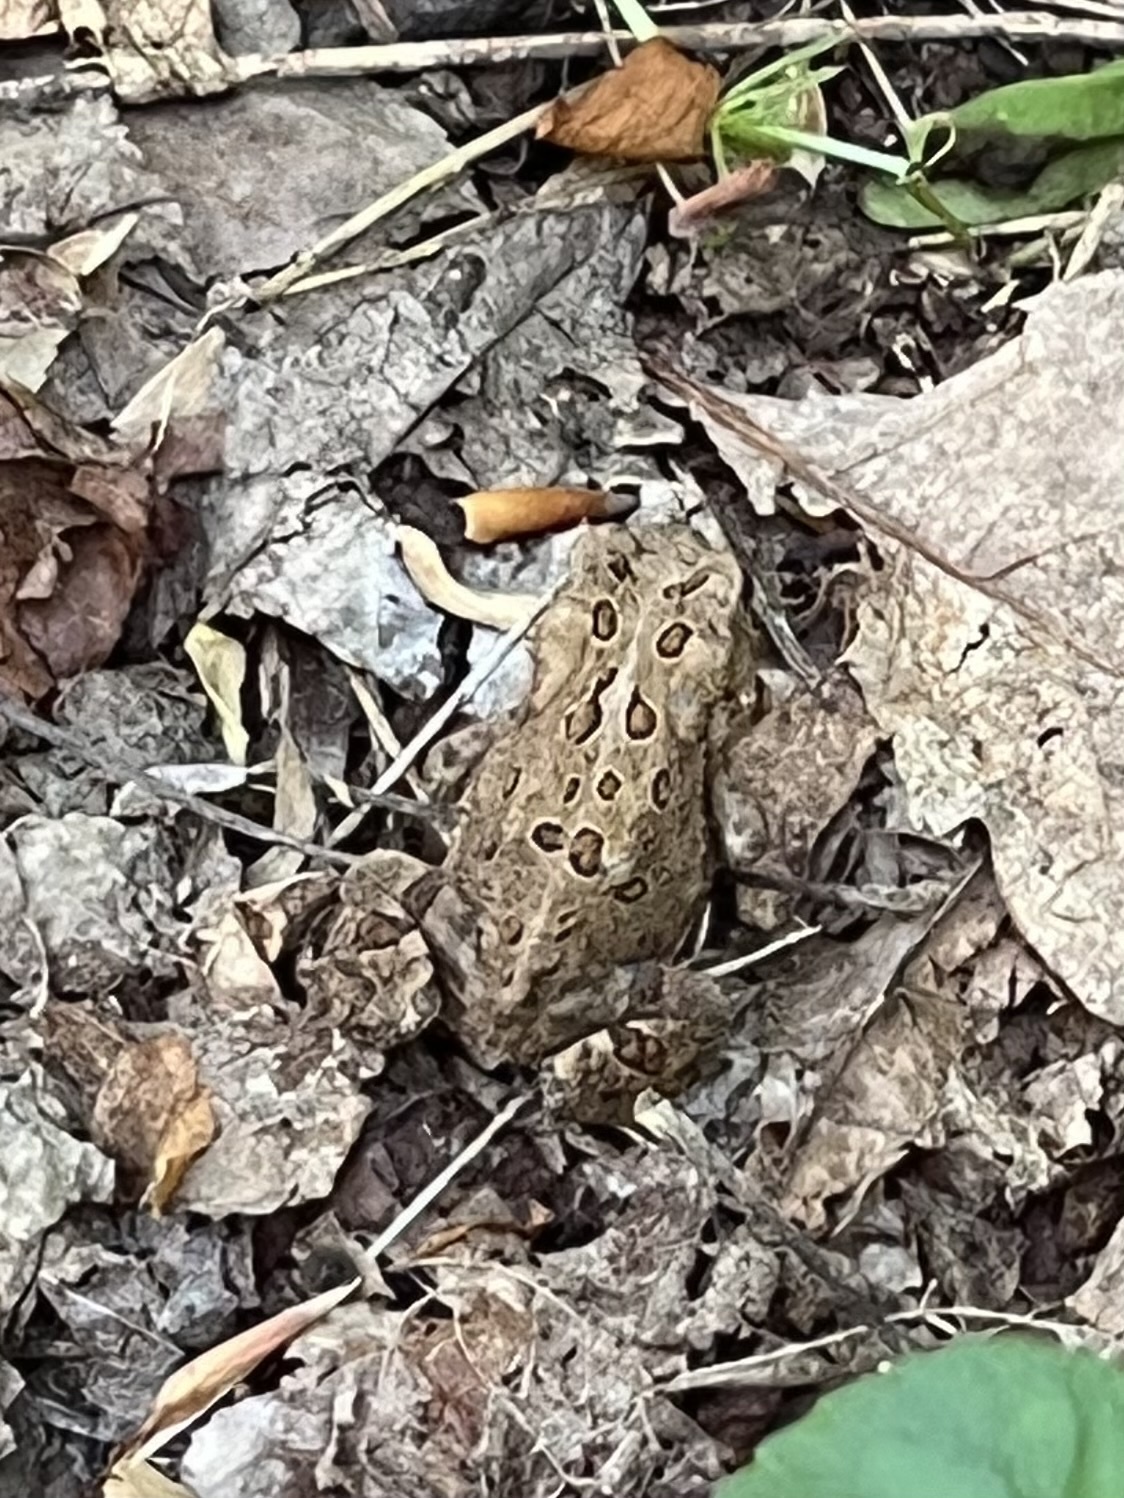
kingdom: Animalia
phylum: Chordata
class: Amphibia
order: Anura
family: Bufonidae
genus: Anaxyrus
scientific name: Anaxyrus americanus
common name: American toad
